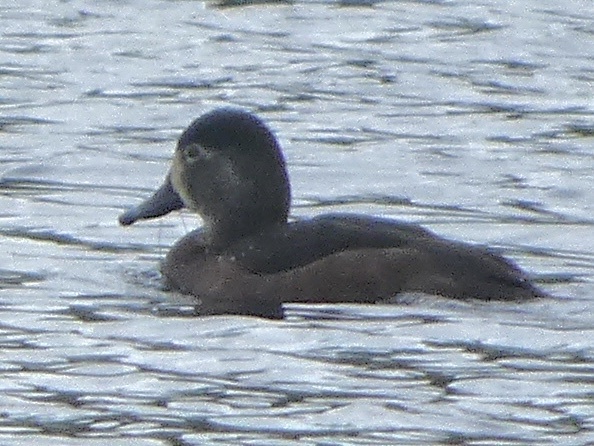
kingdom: Animalia
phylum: Chordata
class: Aves
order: Anseriformes
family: Anatidae
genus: Aythya
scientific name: Aythya collaris
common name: Ring-necked duck
